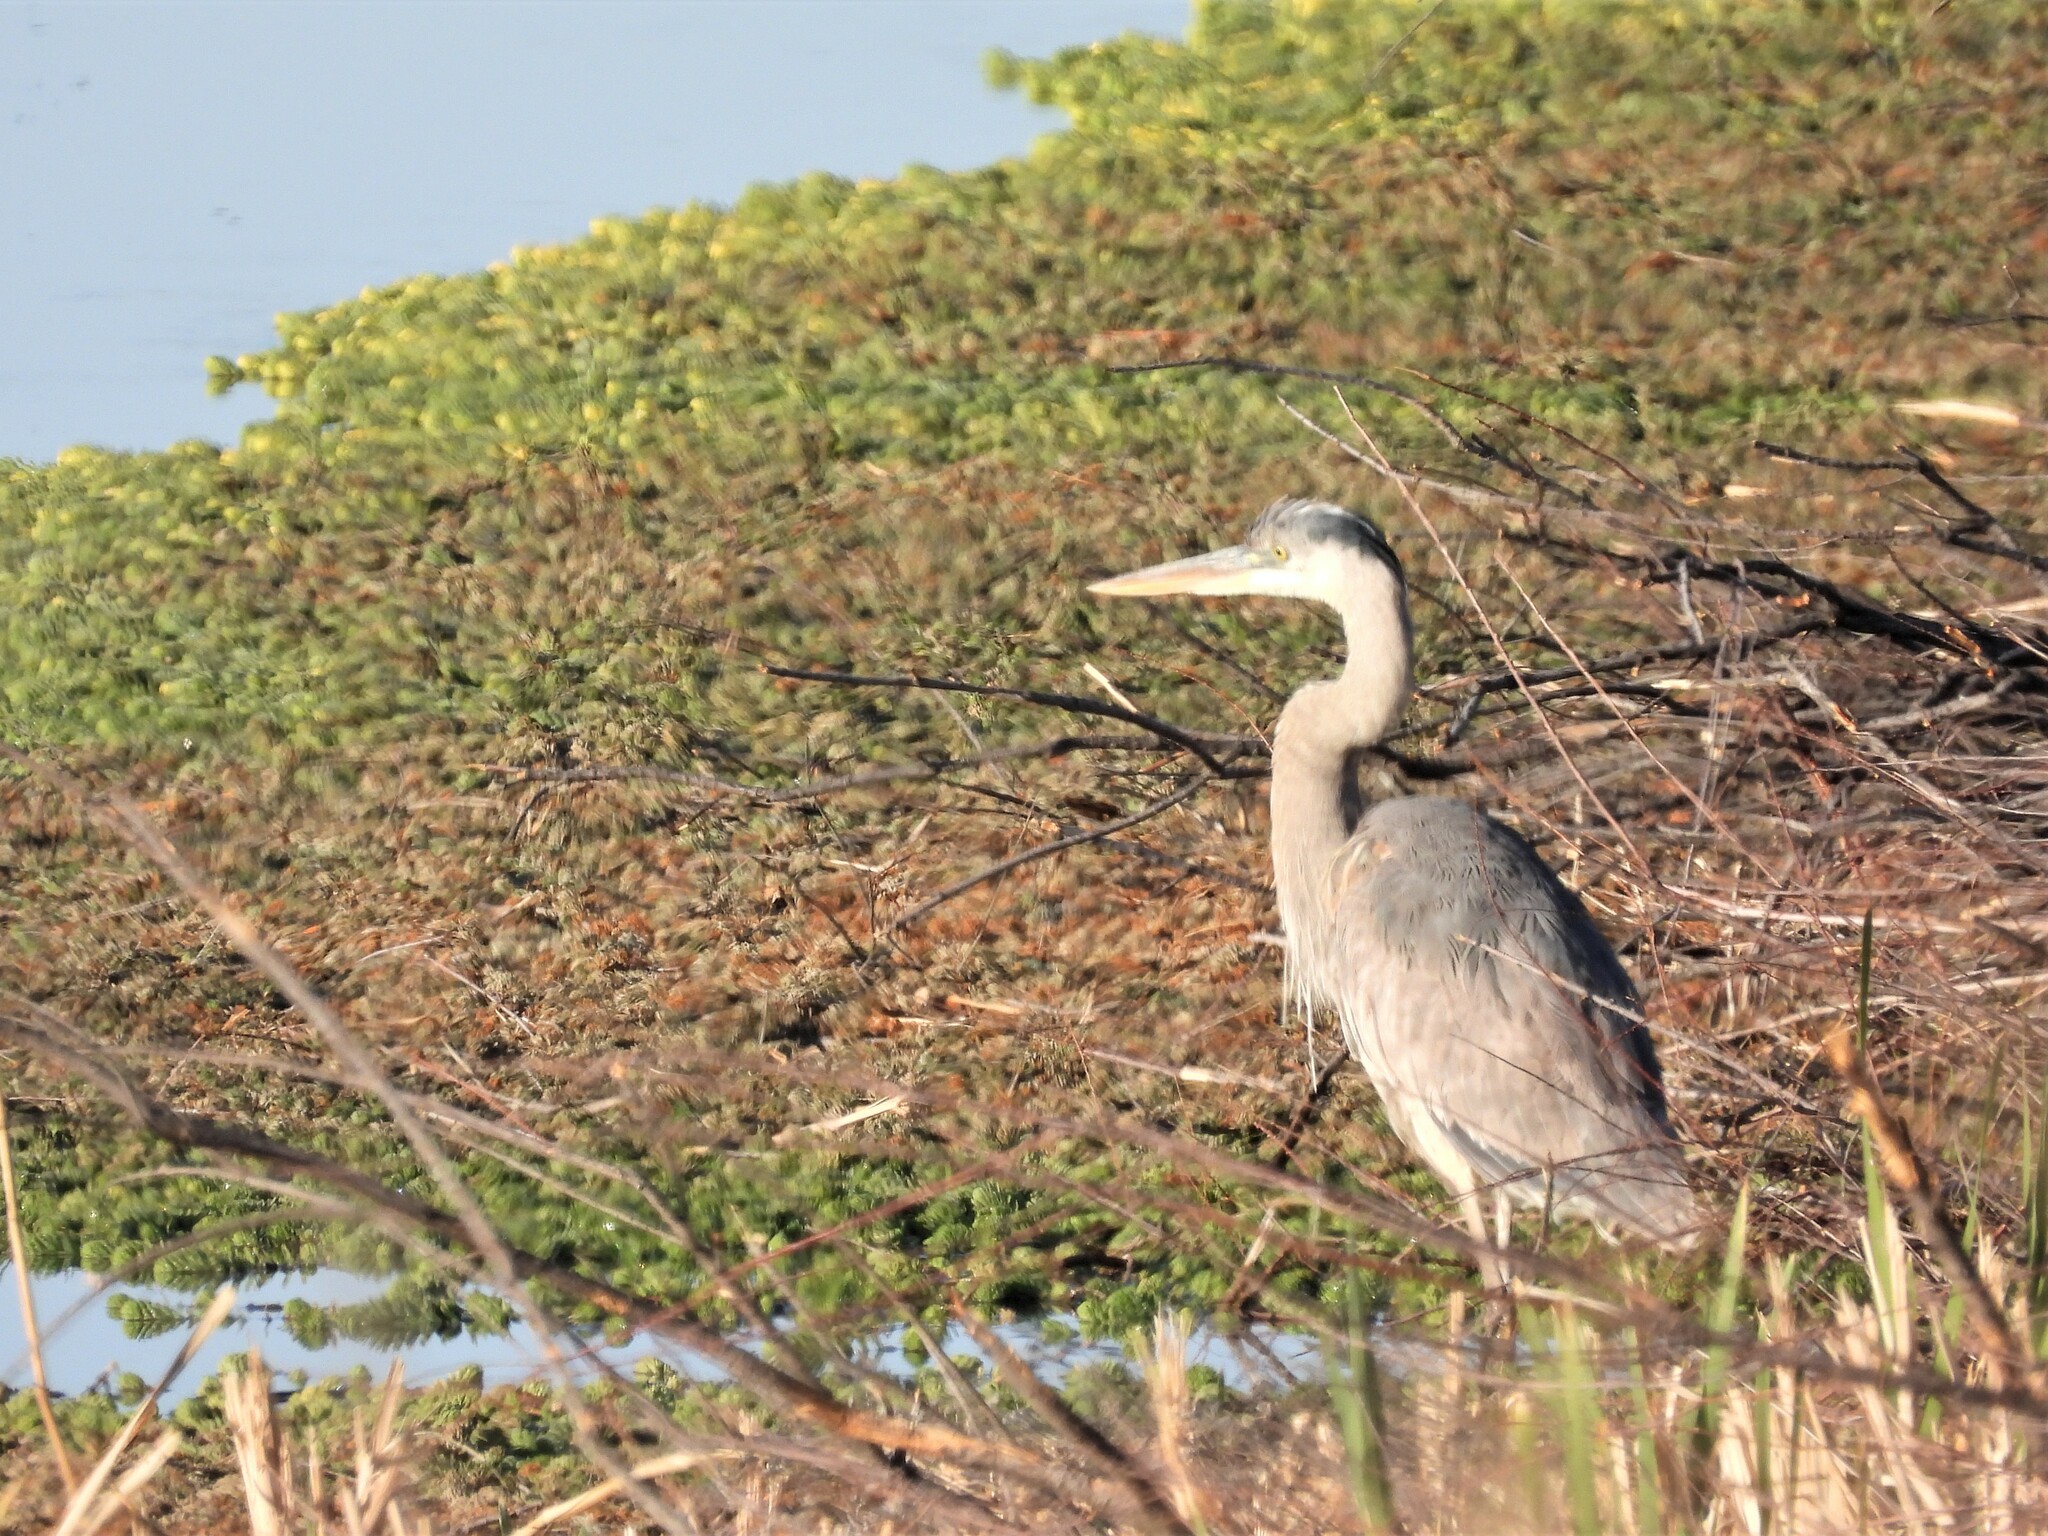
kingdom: Animalia
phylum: Chordata
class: Aves
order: Pelecaniformes
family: Ardeidae
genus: Ardea
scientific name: Ardea herodias
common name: Great blue heron
